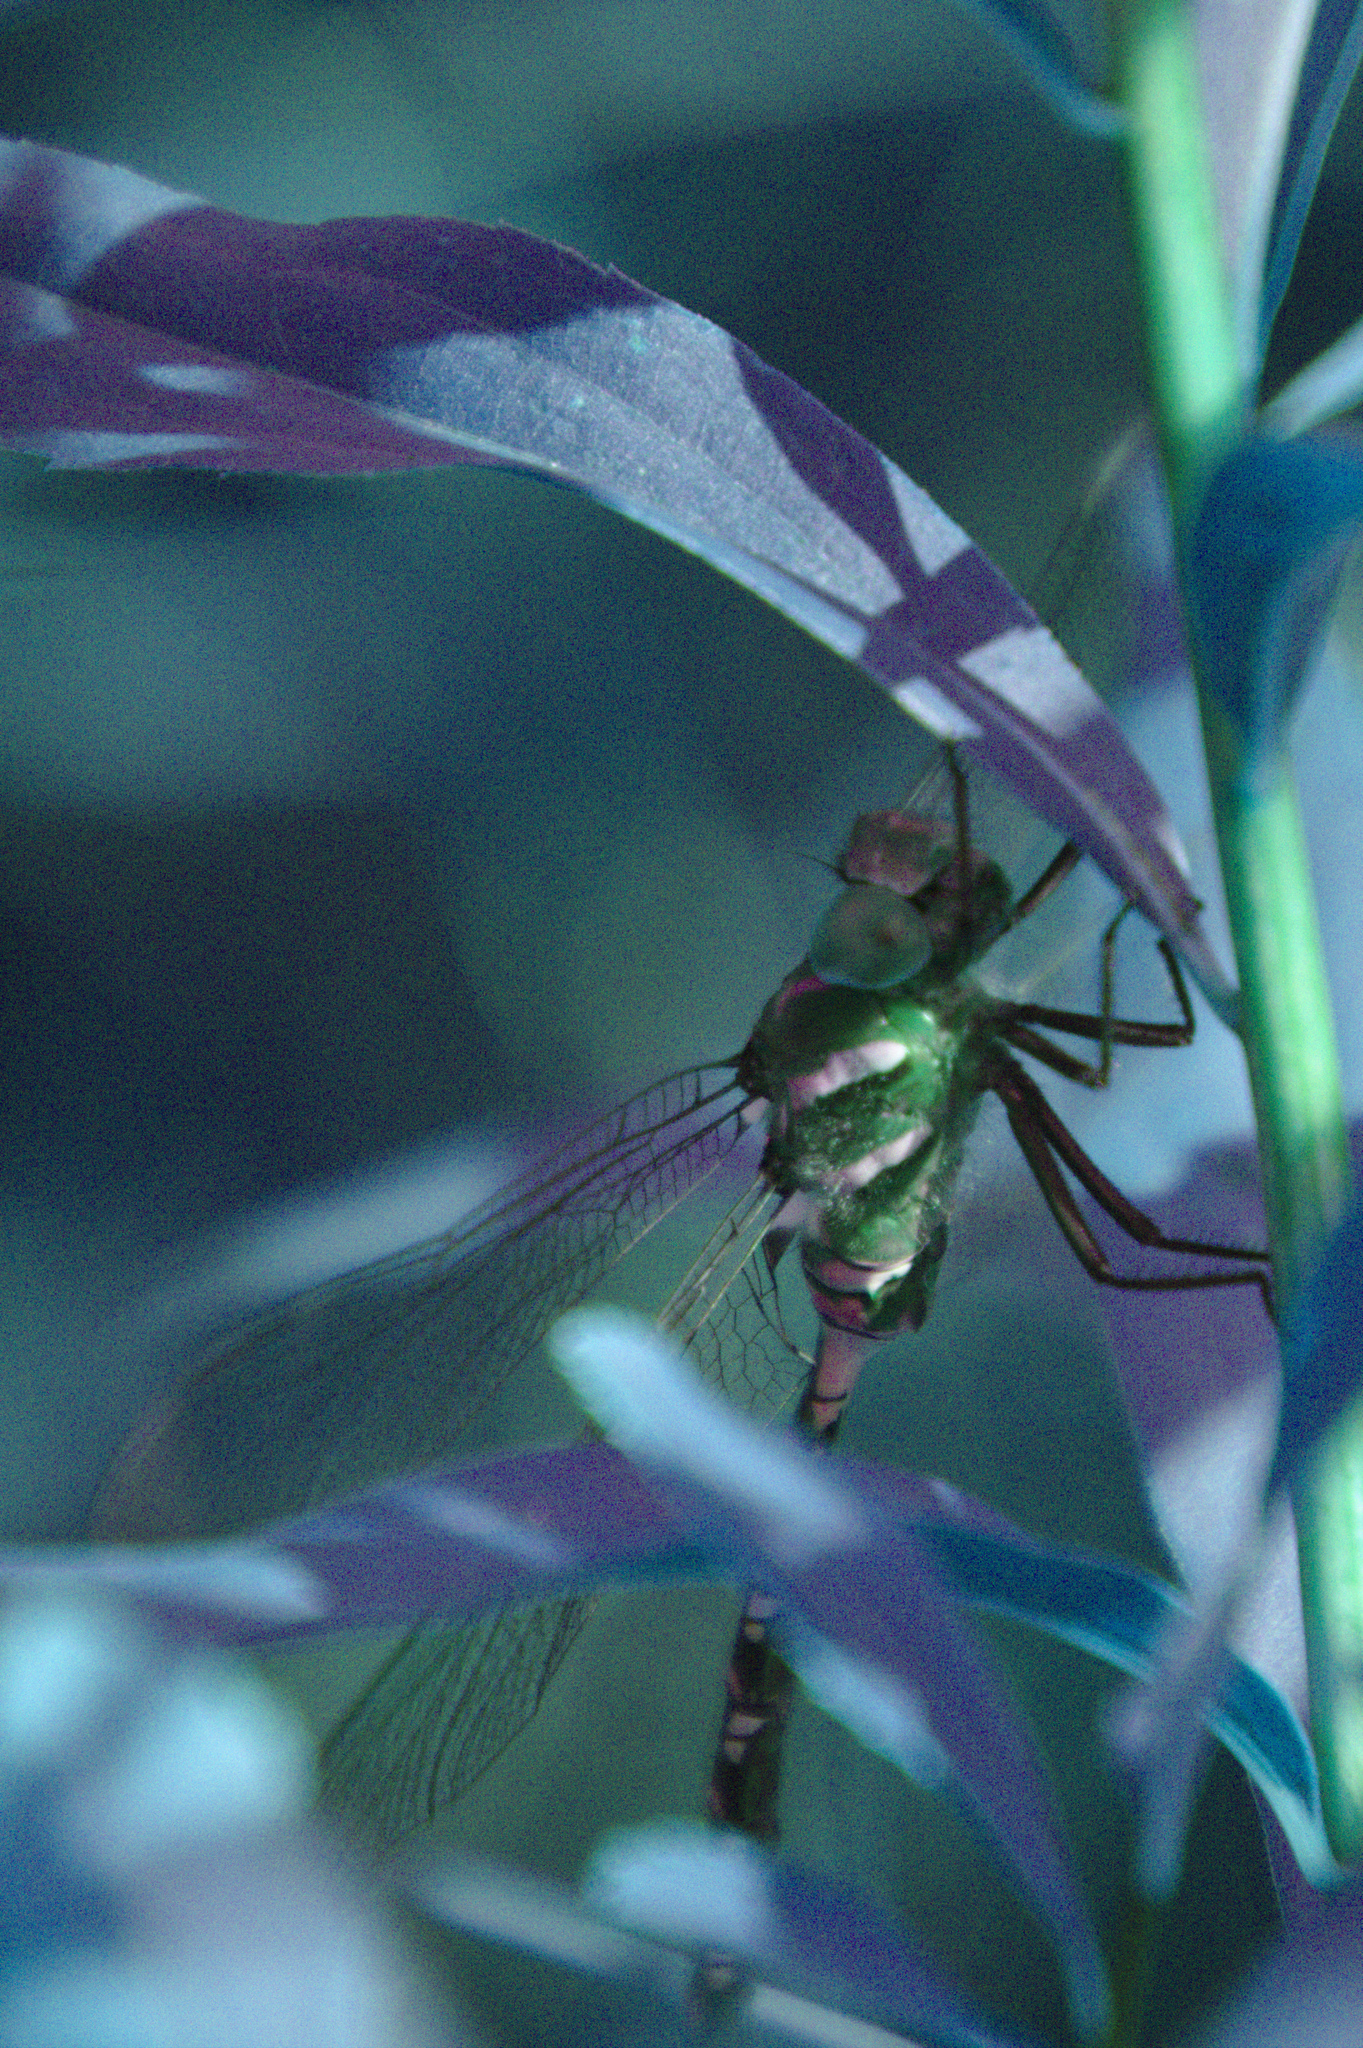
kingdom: Animalia
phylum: Arthropoda
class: Insecta
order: Odonata
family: Aeshnidae
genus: Aeshna
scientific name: Aeshna constricta
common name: Lance-tipped darner
